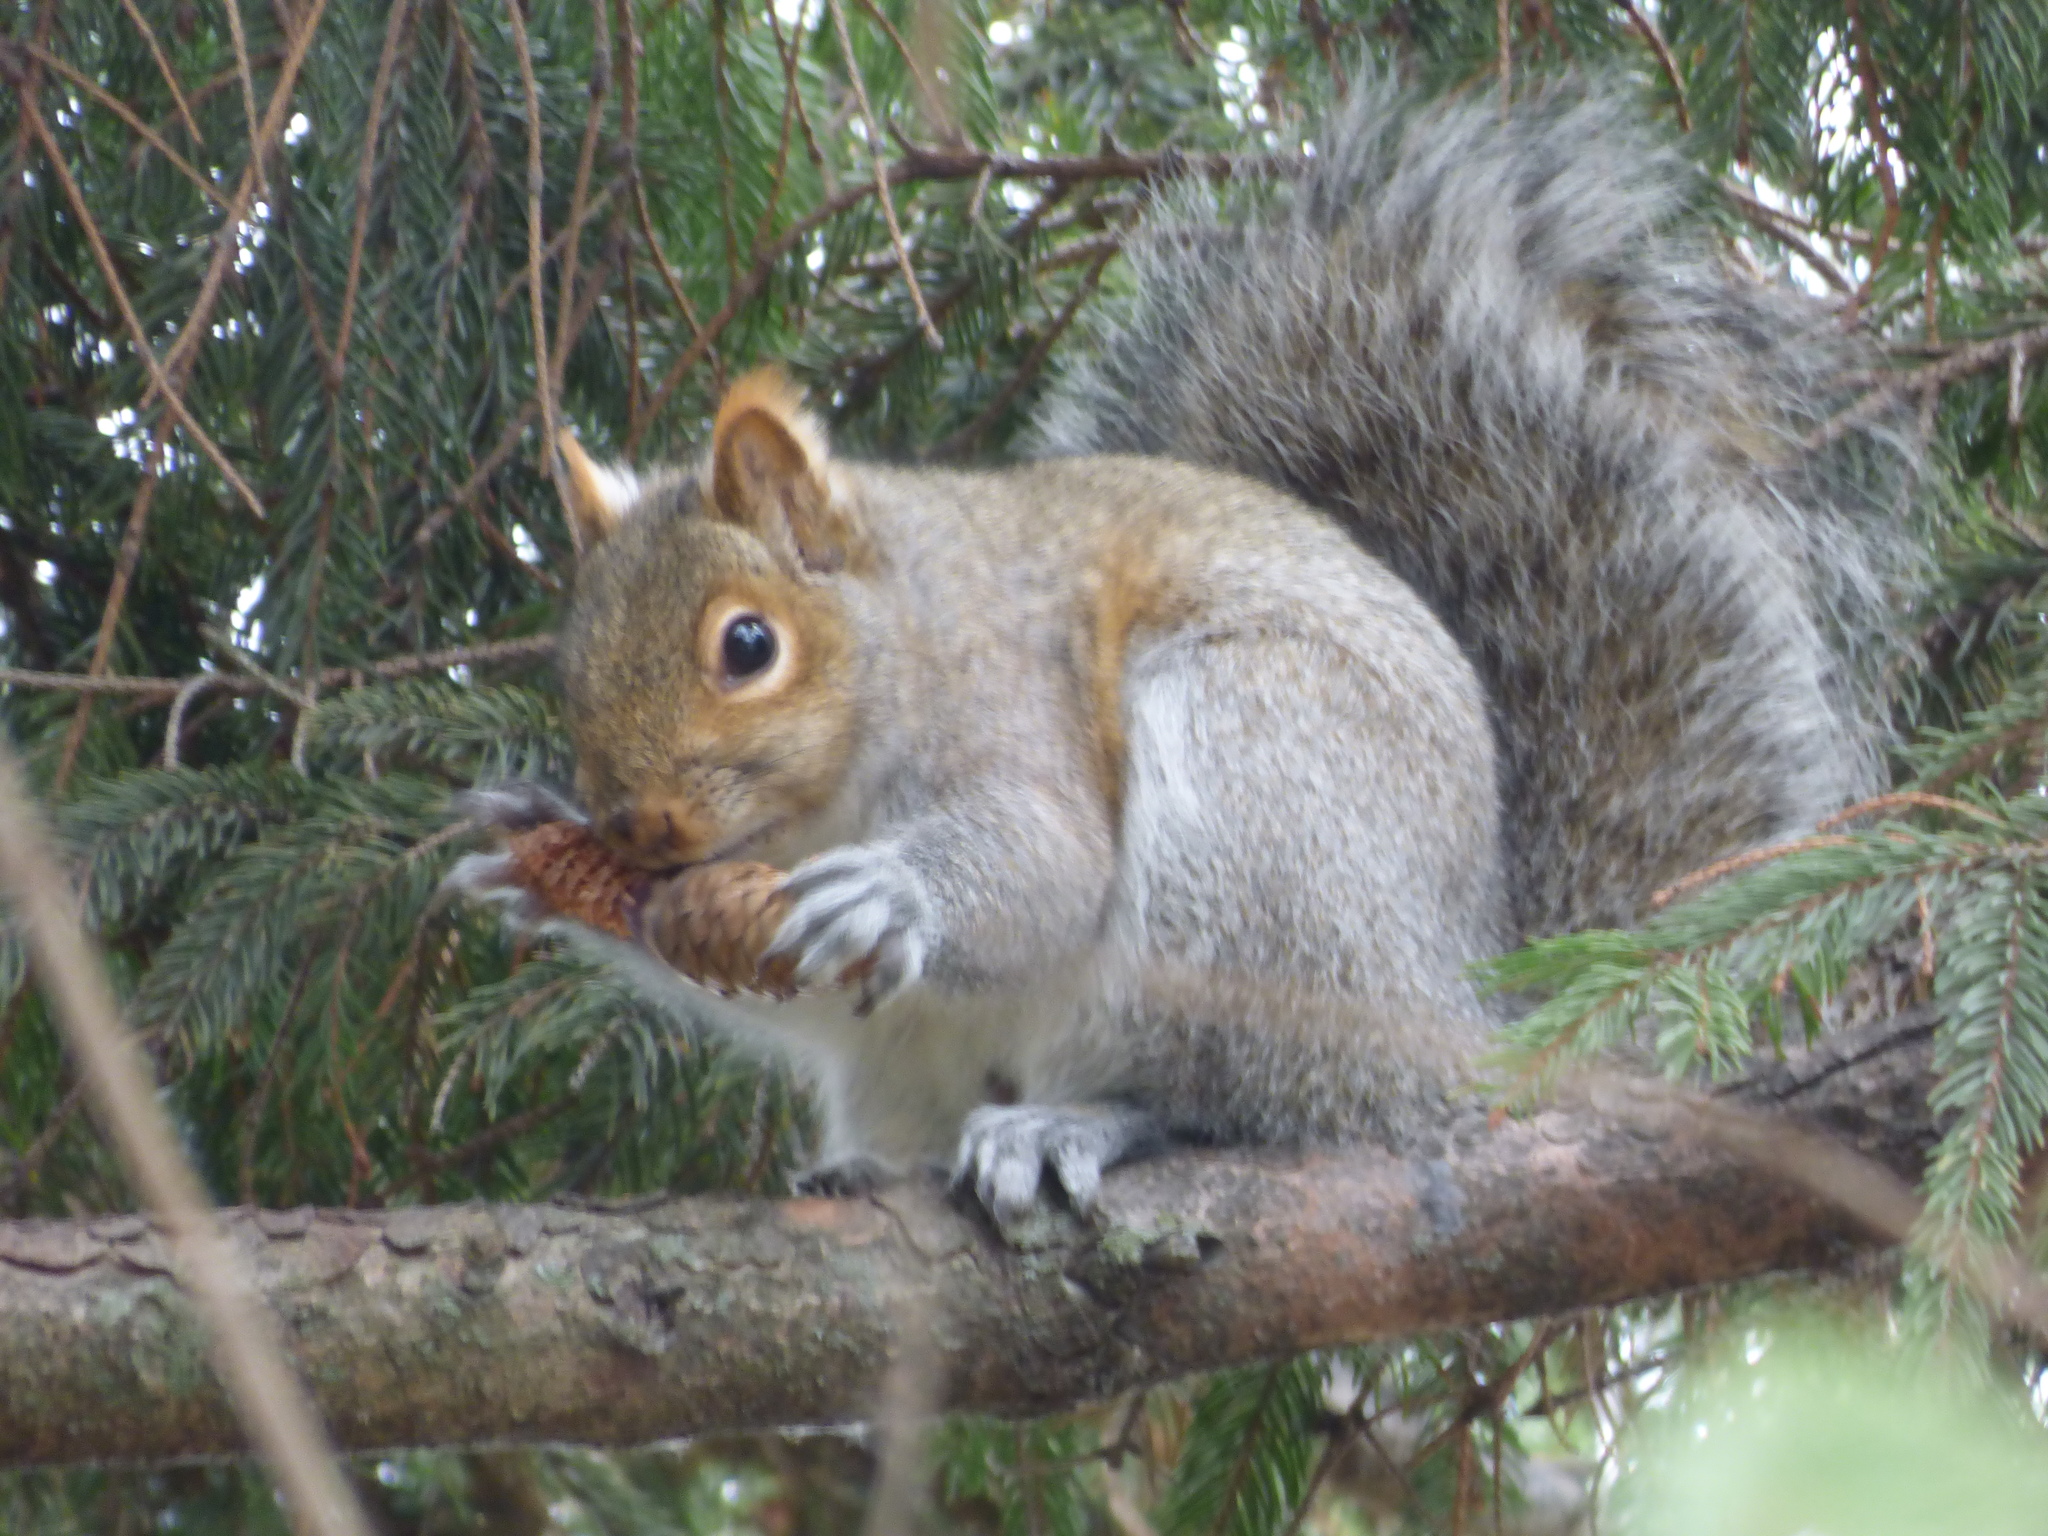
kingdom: Animalia
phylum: Chordata
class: Mammalia
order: Rodentia
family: Sciuridae
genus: Sciurus
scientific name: Sciurus carolinensis
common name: Eastern gray squirrel
